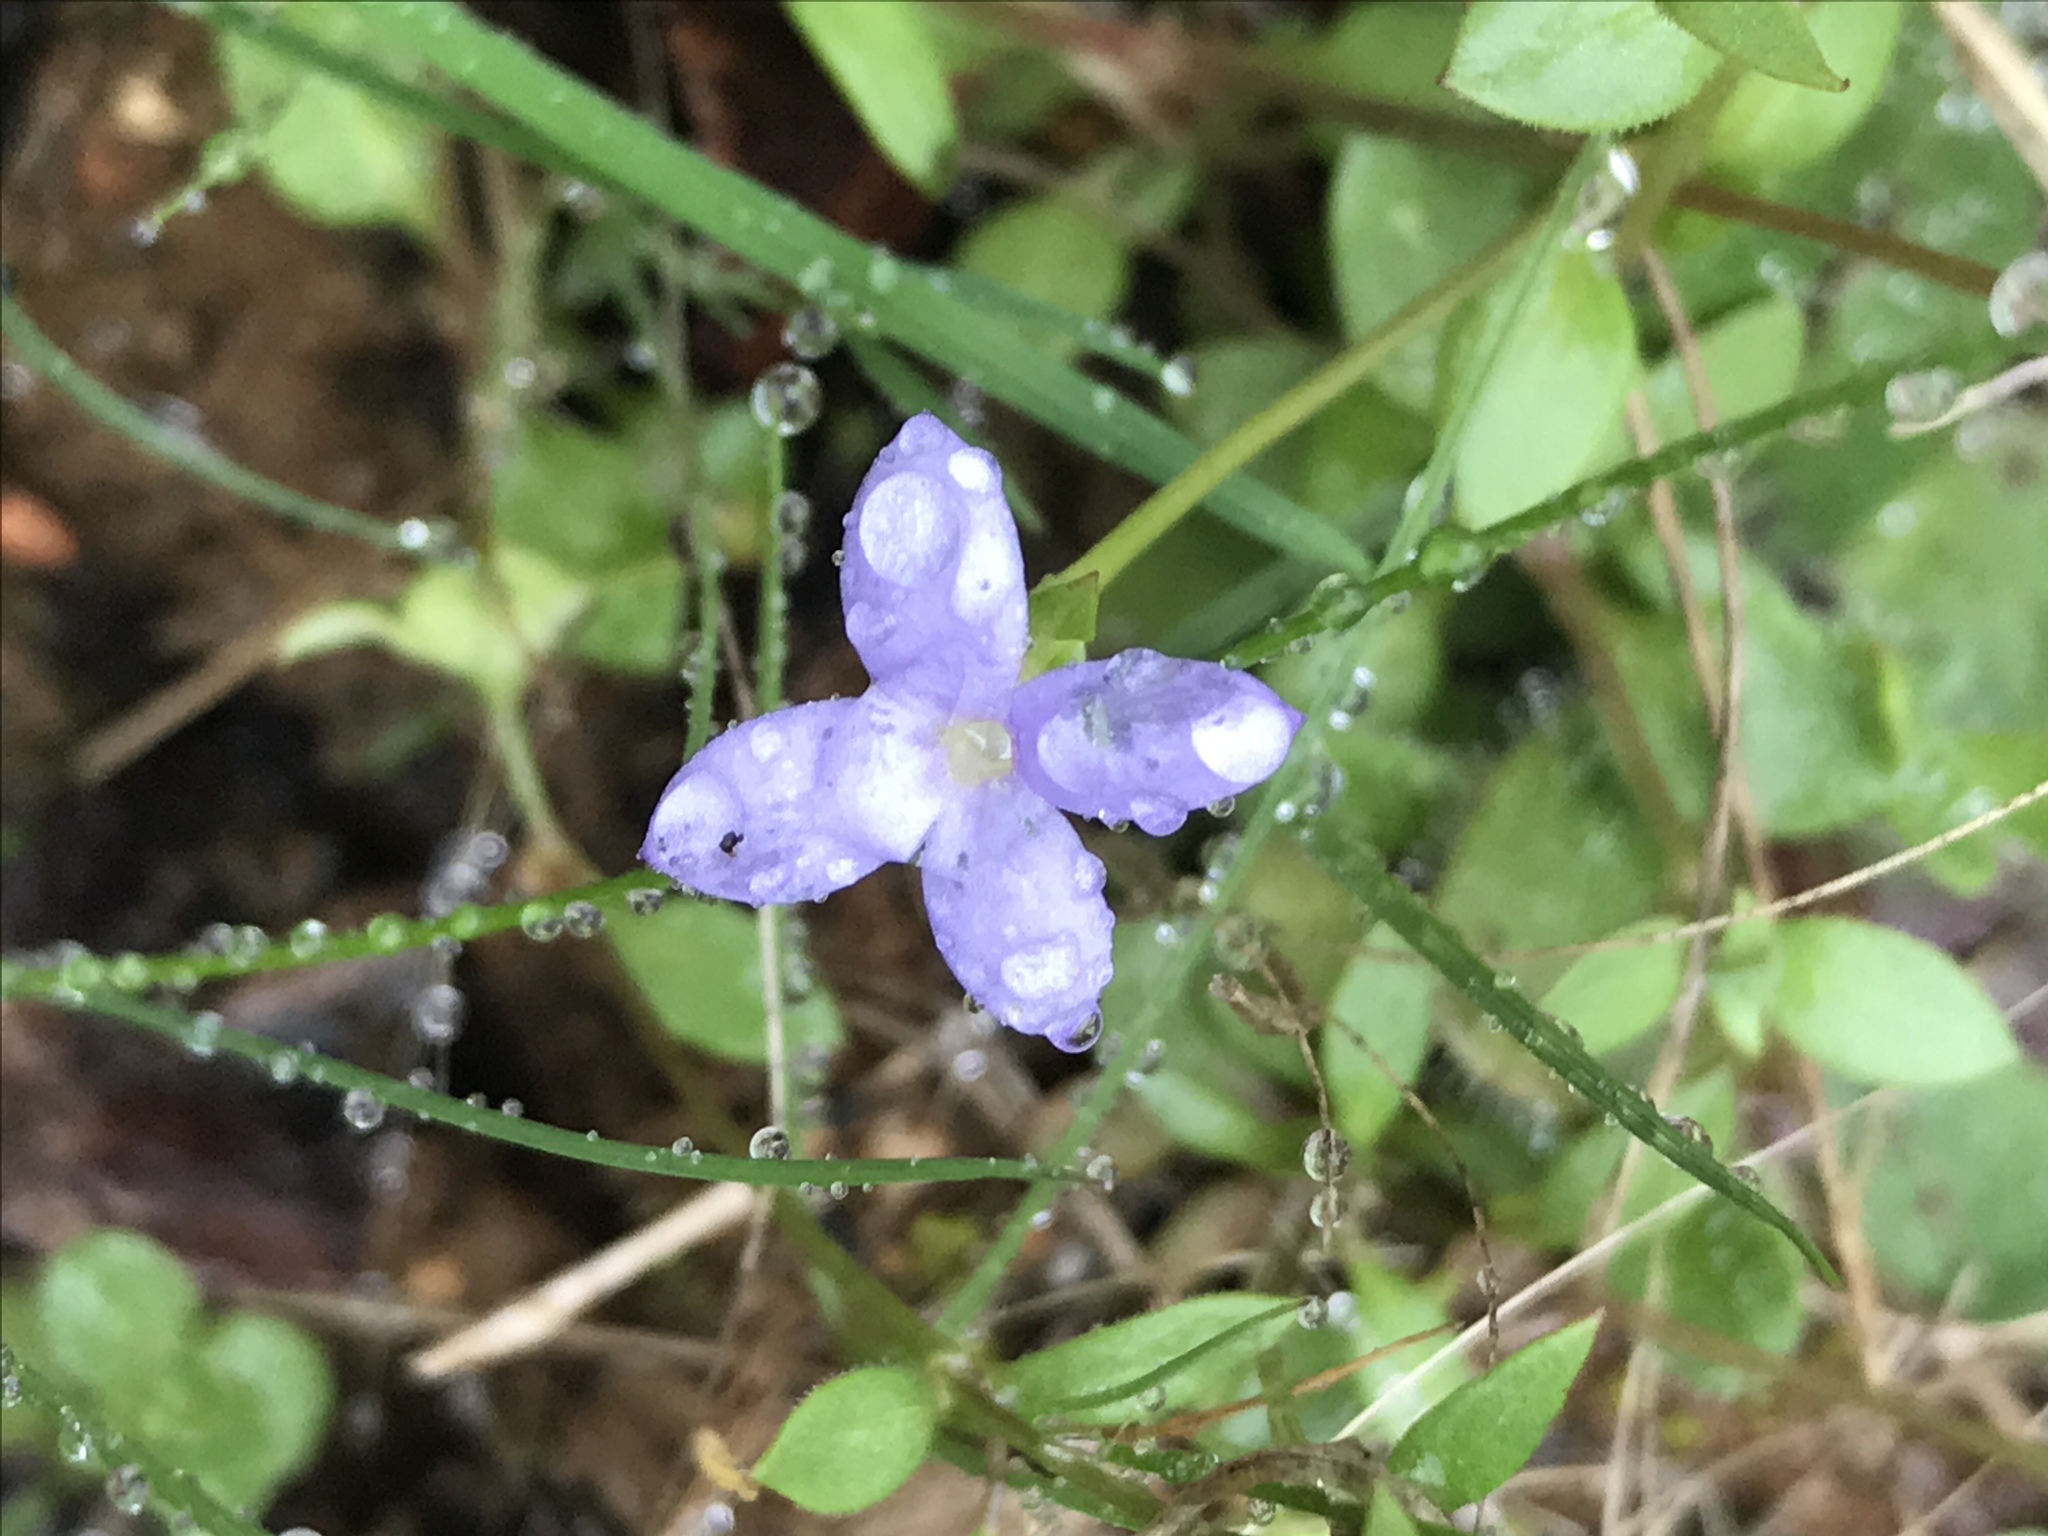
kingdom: Plantae
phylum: Tracheophyta
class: Magnoliopsida
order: Gentianales
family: Rubiaceae
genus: Houstonia
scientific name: Houstonia pusilla
